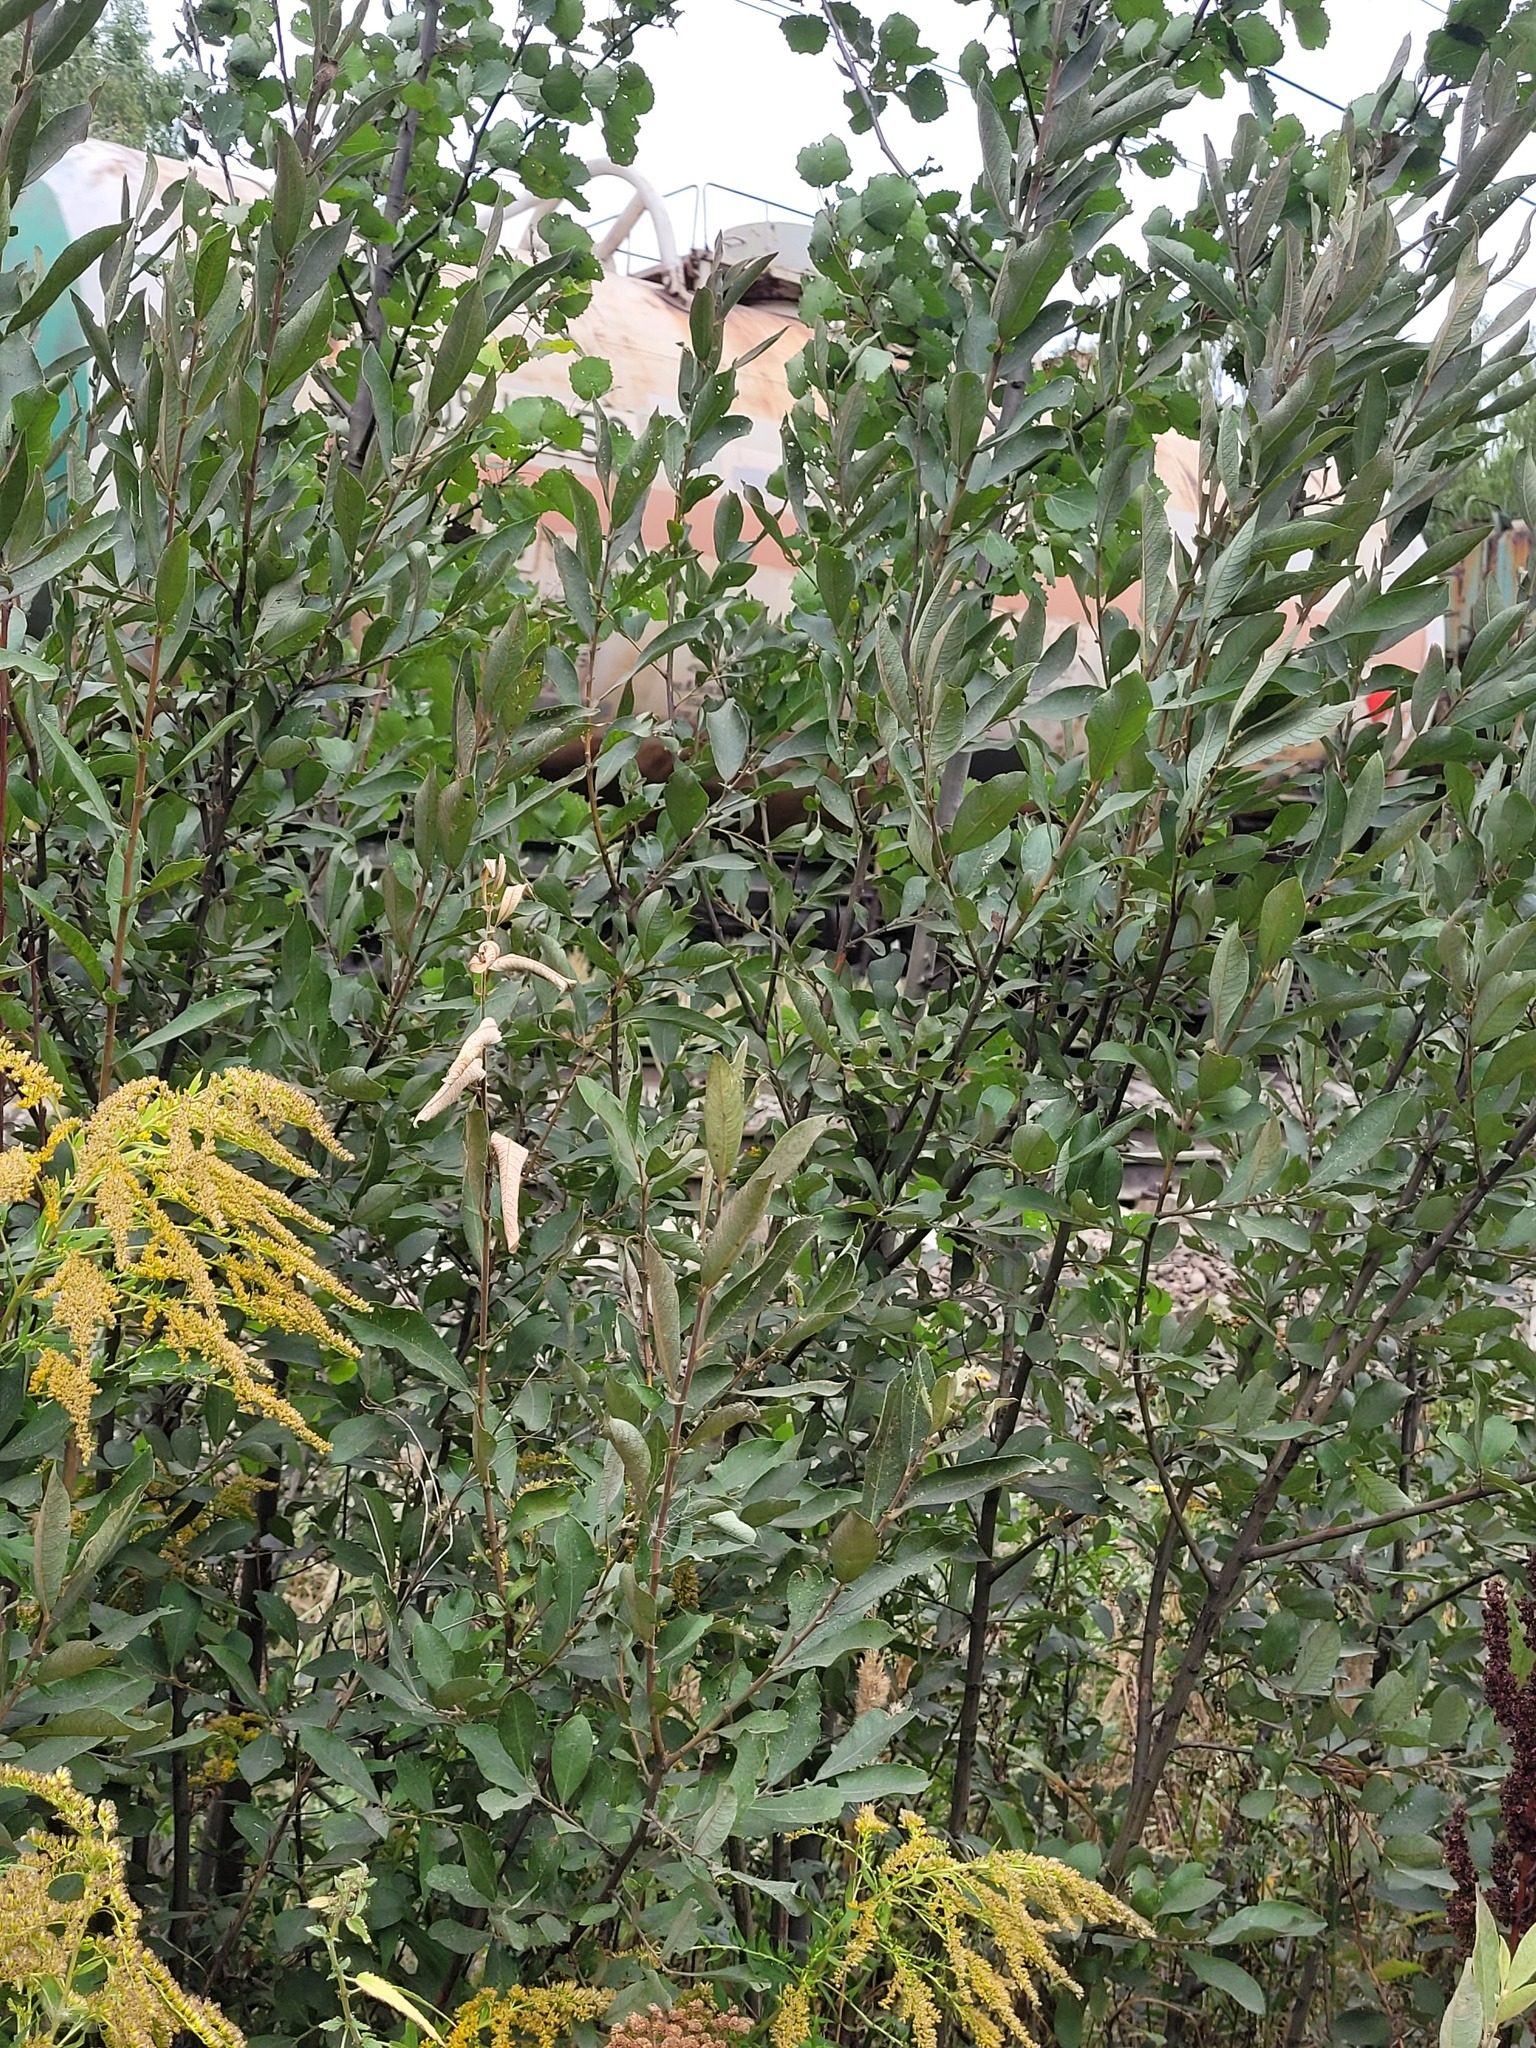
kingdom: Plantae
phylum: Tracheophyta
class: Magnoliopsida
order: Malpighiales
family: Salicaceae
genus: Salix
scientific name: Salix cinerea
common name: Common sallow
